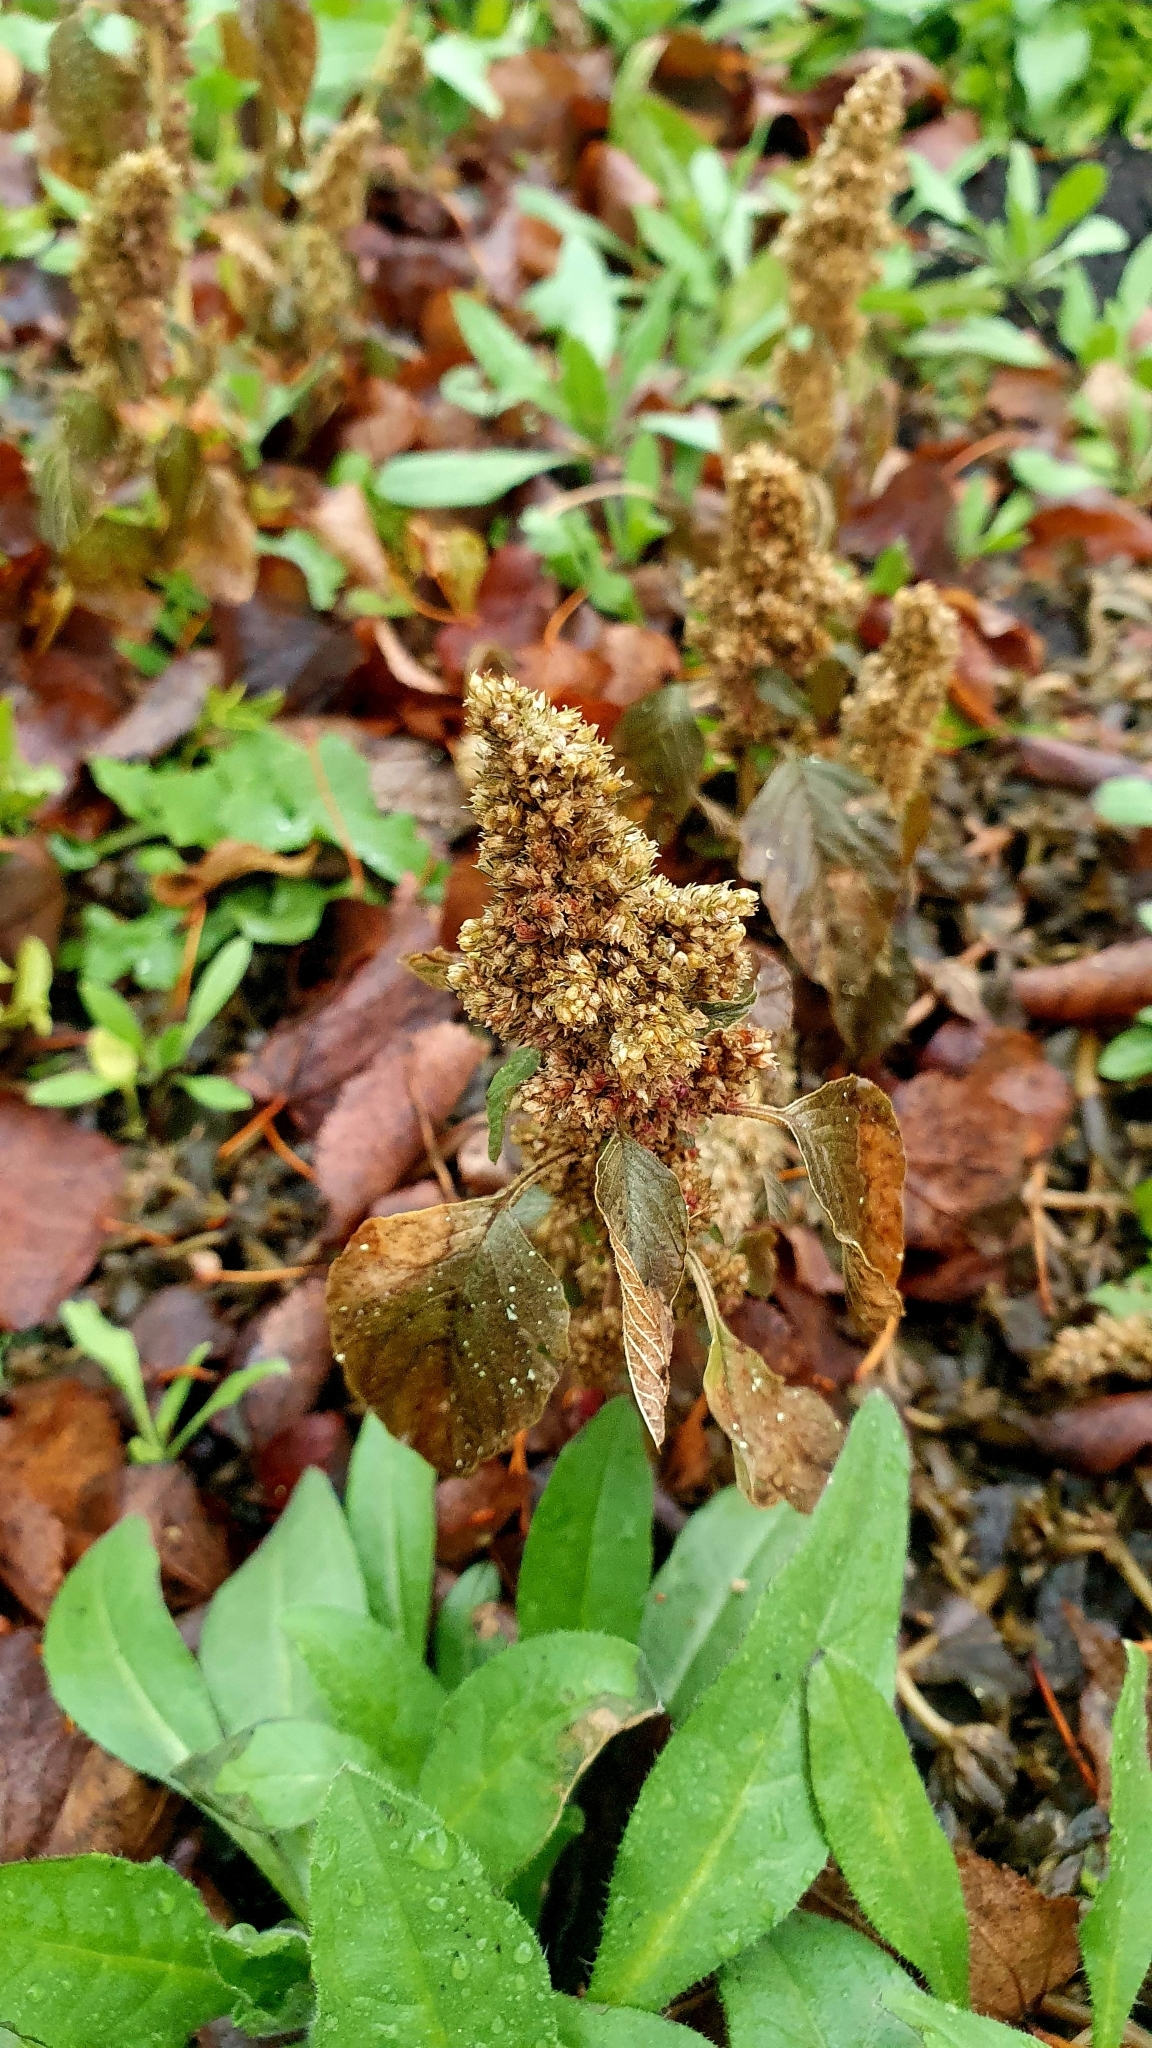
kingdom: Plantae
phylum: Tracheophyta
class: Magnoliopsida
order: Caryophyllales
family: Amaranthaceae
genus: Amaranthus
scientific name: Amaranthus retroflexus
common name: Redroot amaranth
